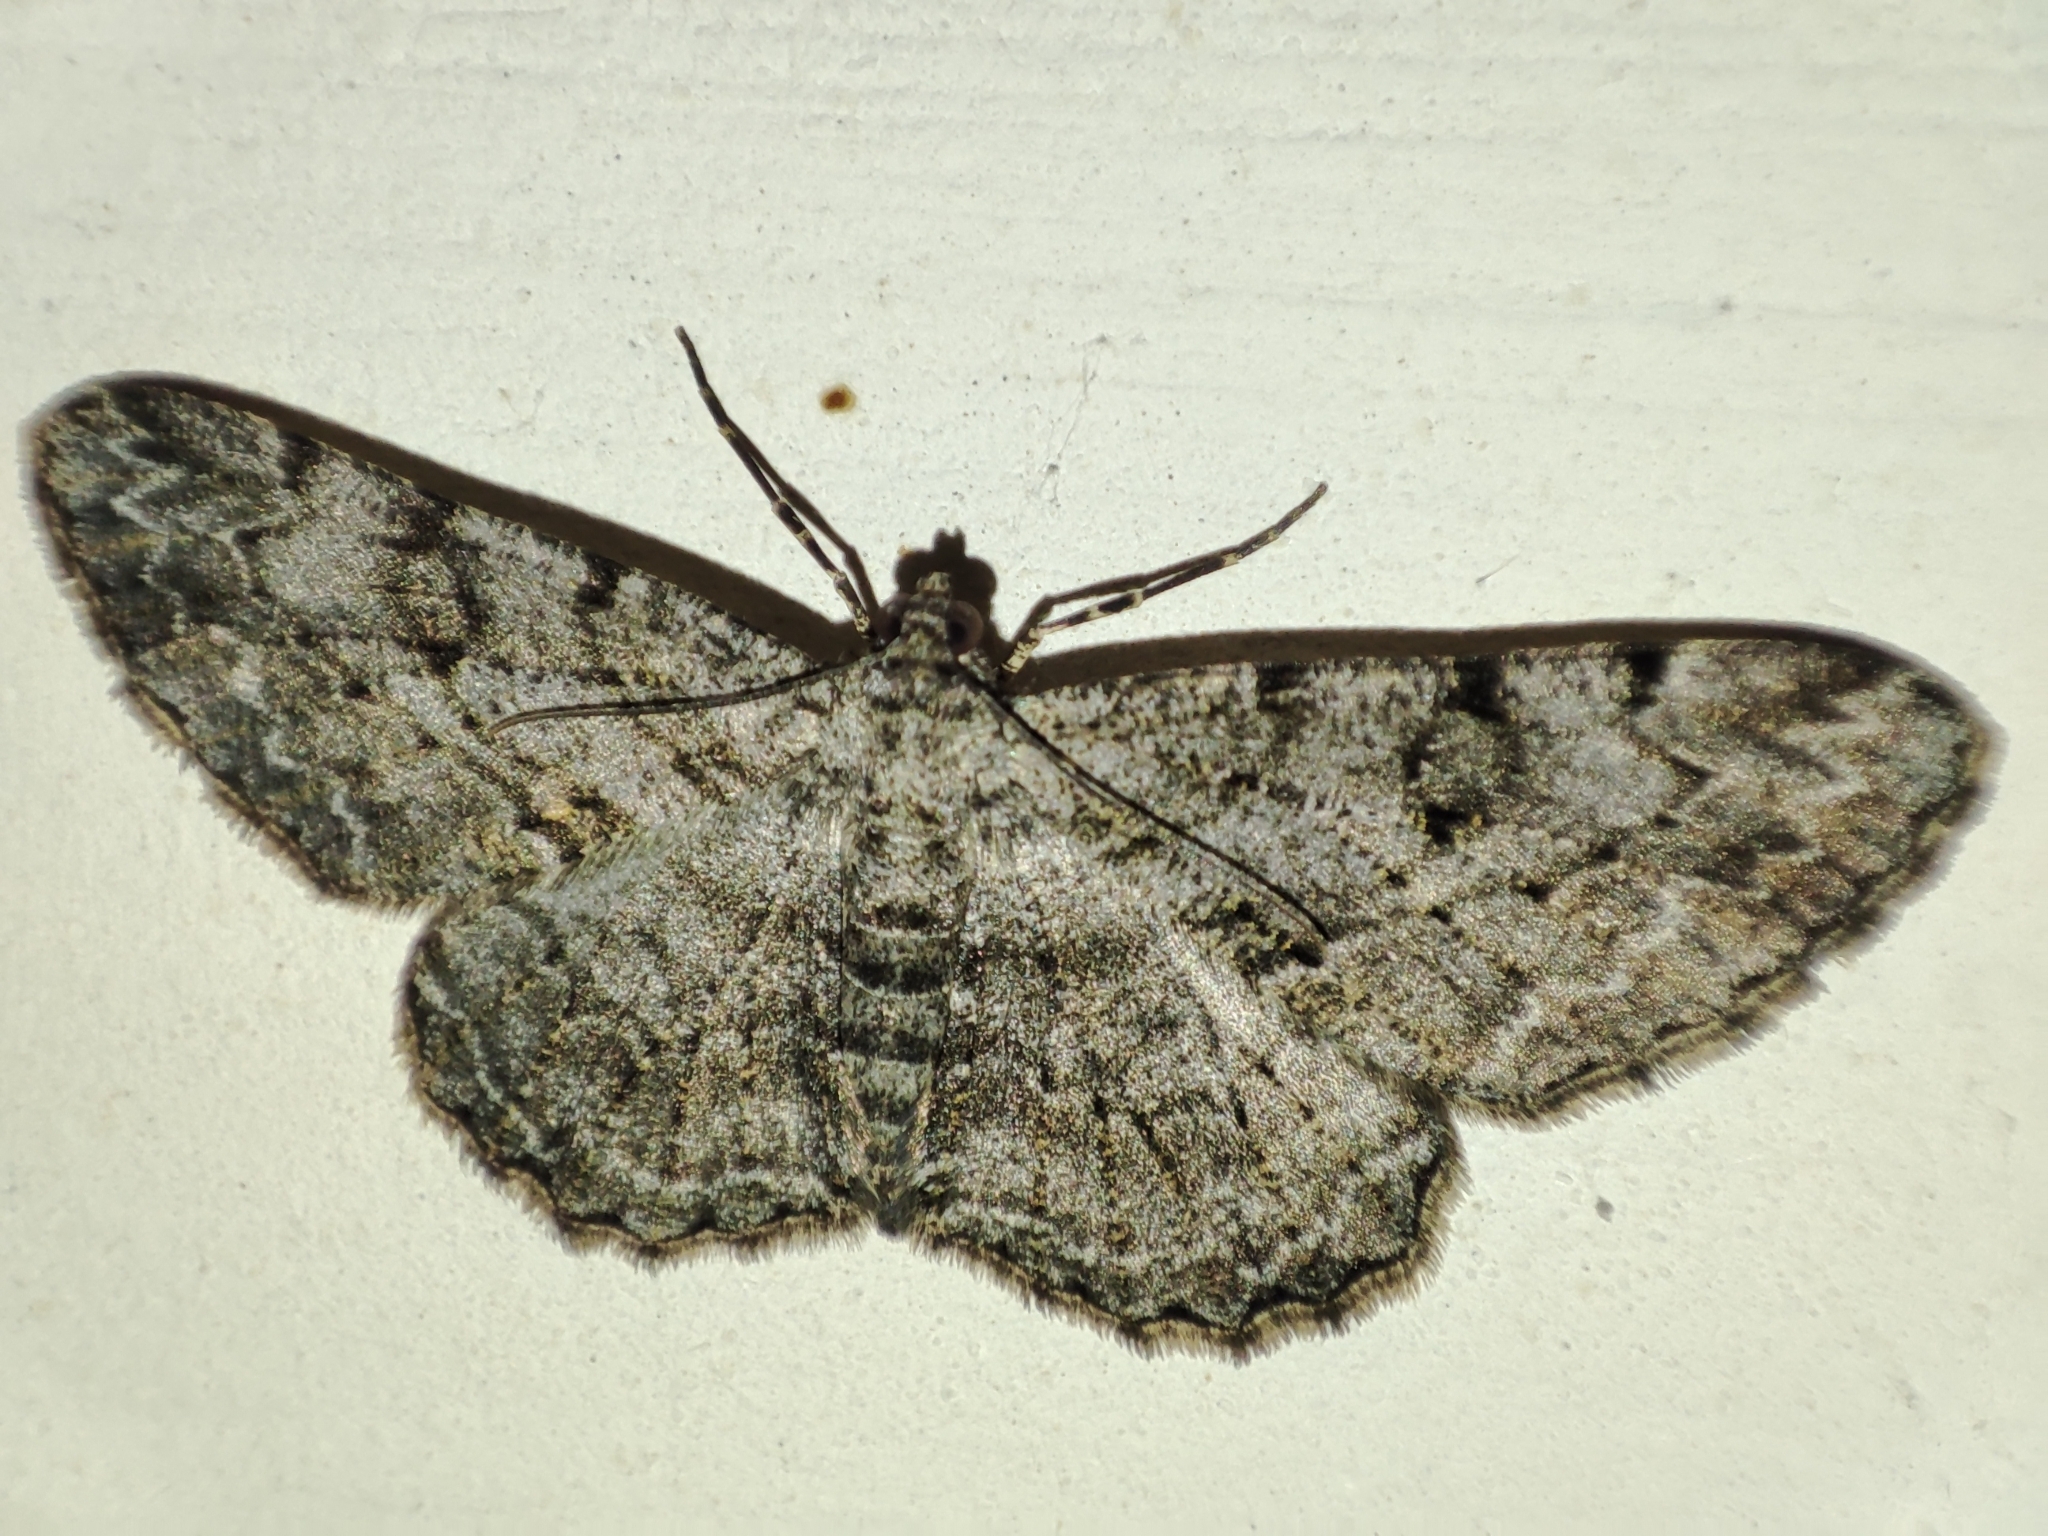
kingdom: Animalia
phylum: Arthropoda
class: Insecta
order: Lepidoptera
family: Geometridae
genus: Peribatodes
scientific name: Peribatodes rhomboidaria
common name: Willow beauty
